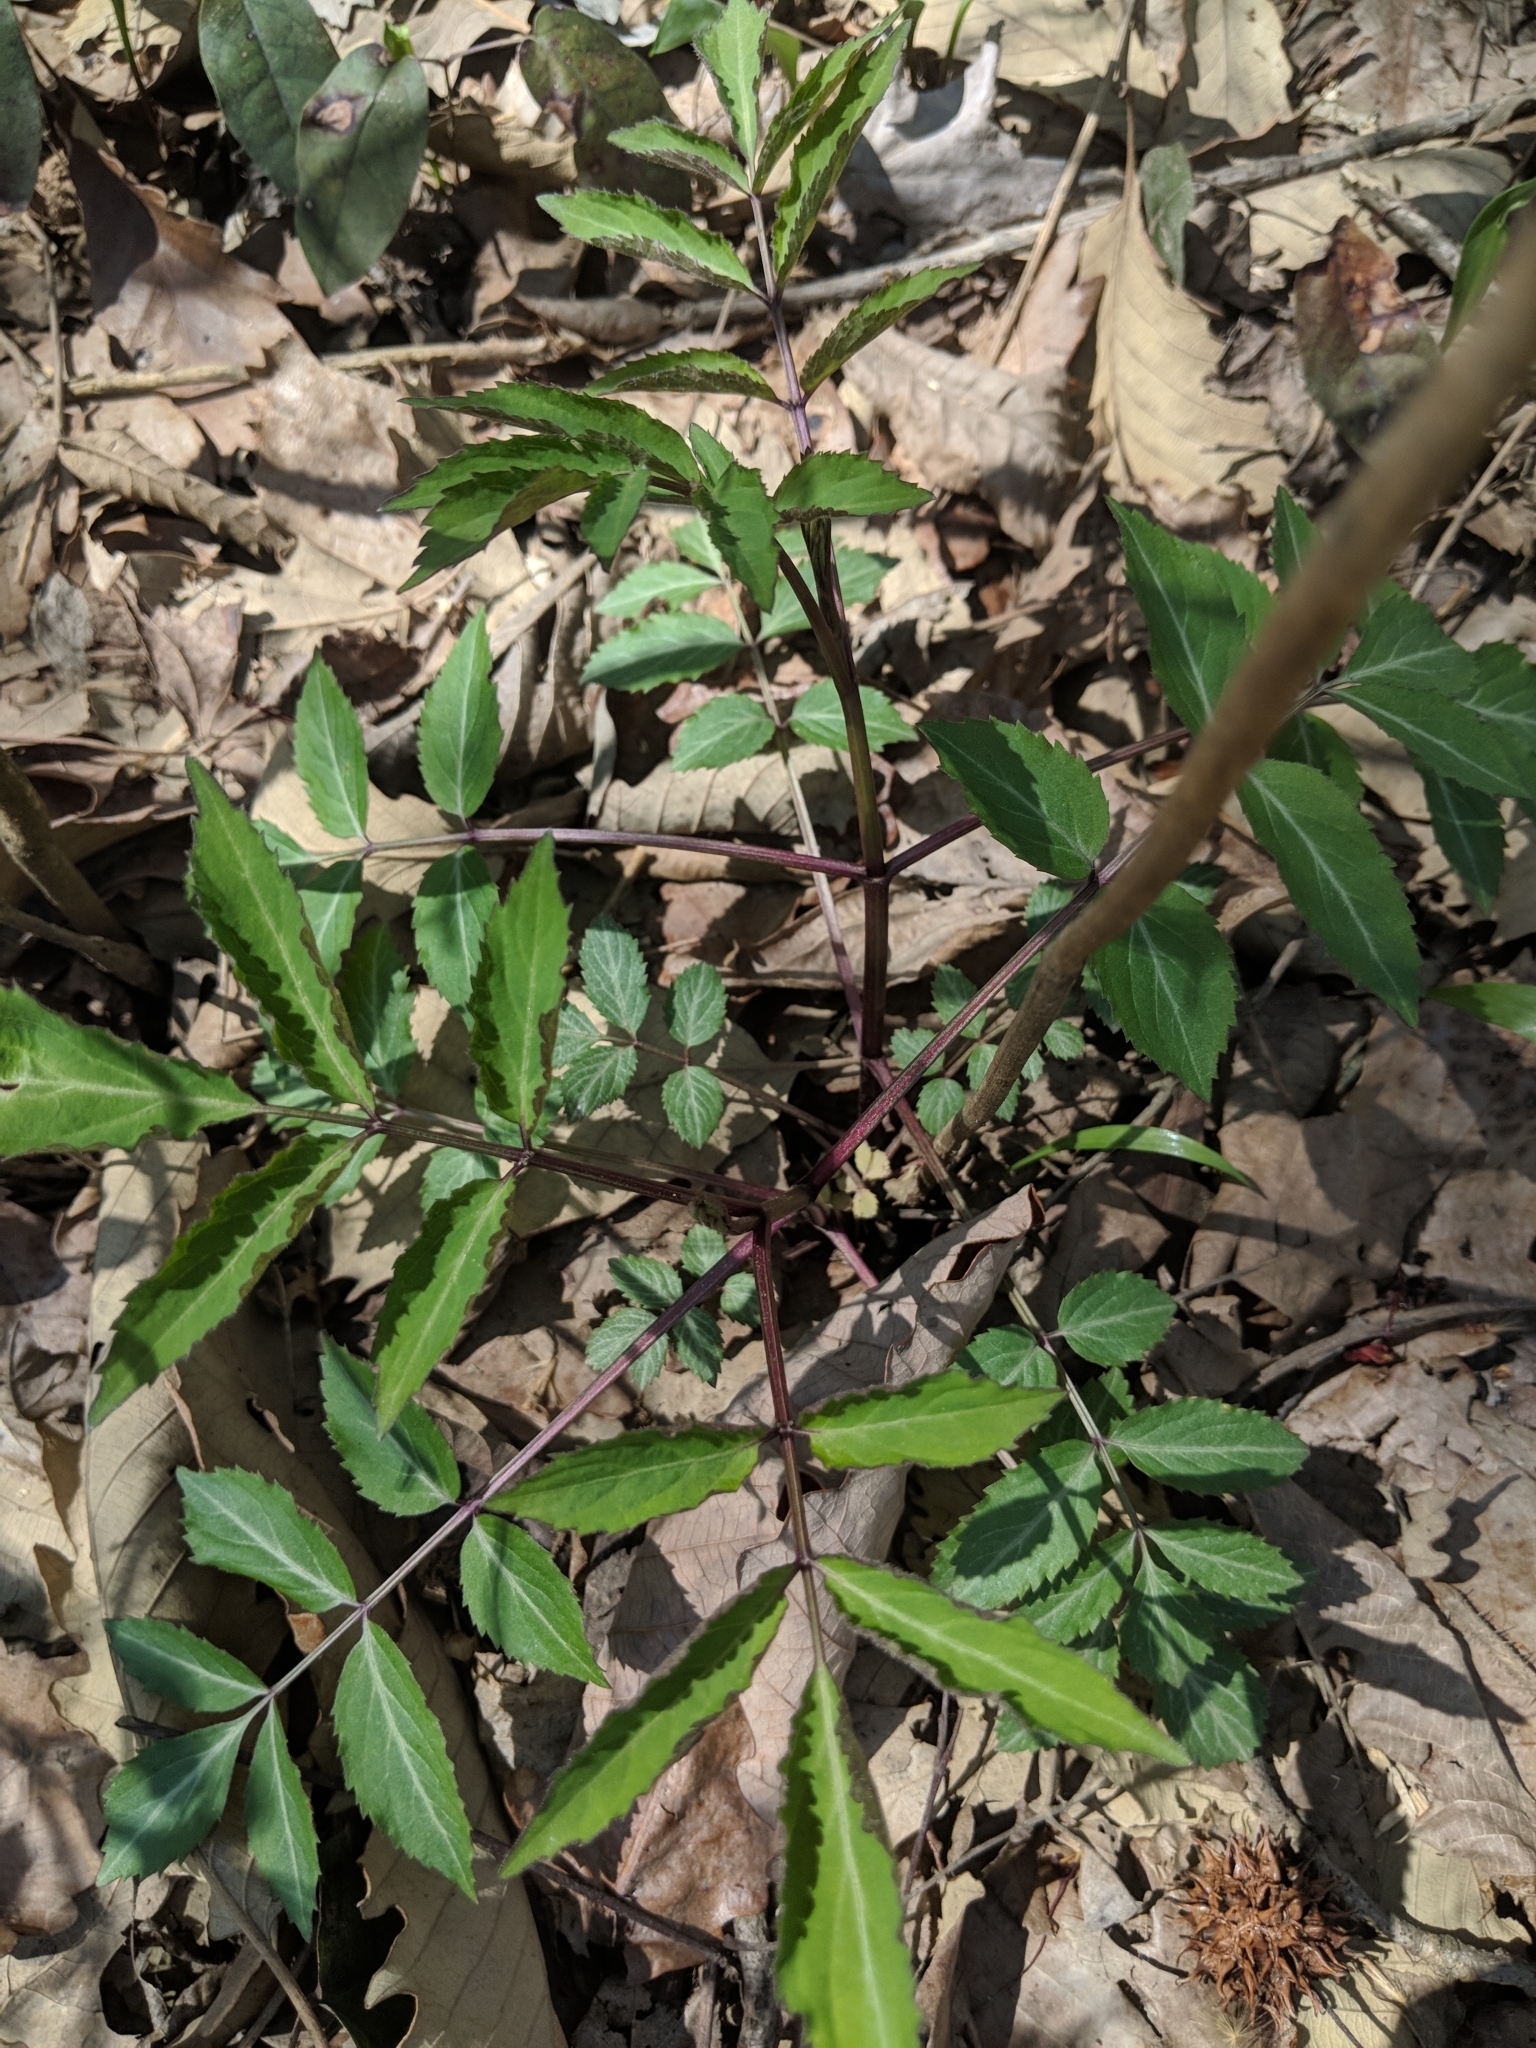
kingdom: Plantae
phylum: Tracheophyta
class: Magnoliopsida
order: Dipsacales
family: Viburnaceae
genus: Sambucus
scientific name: Sambucus canadensis
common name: American elder
